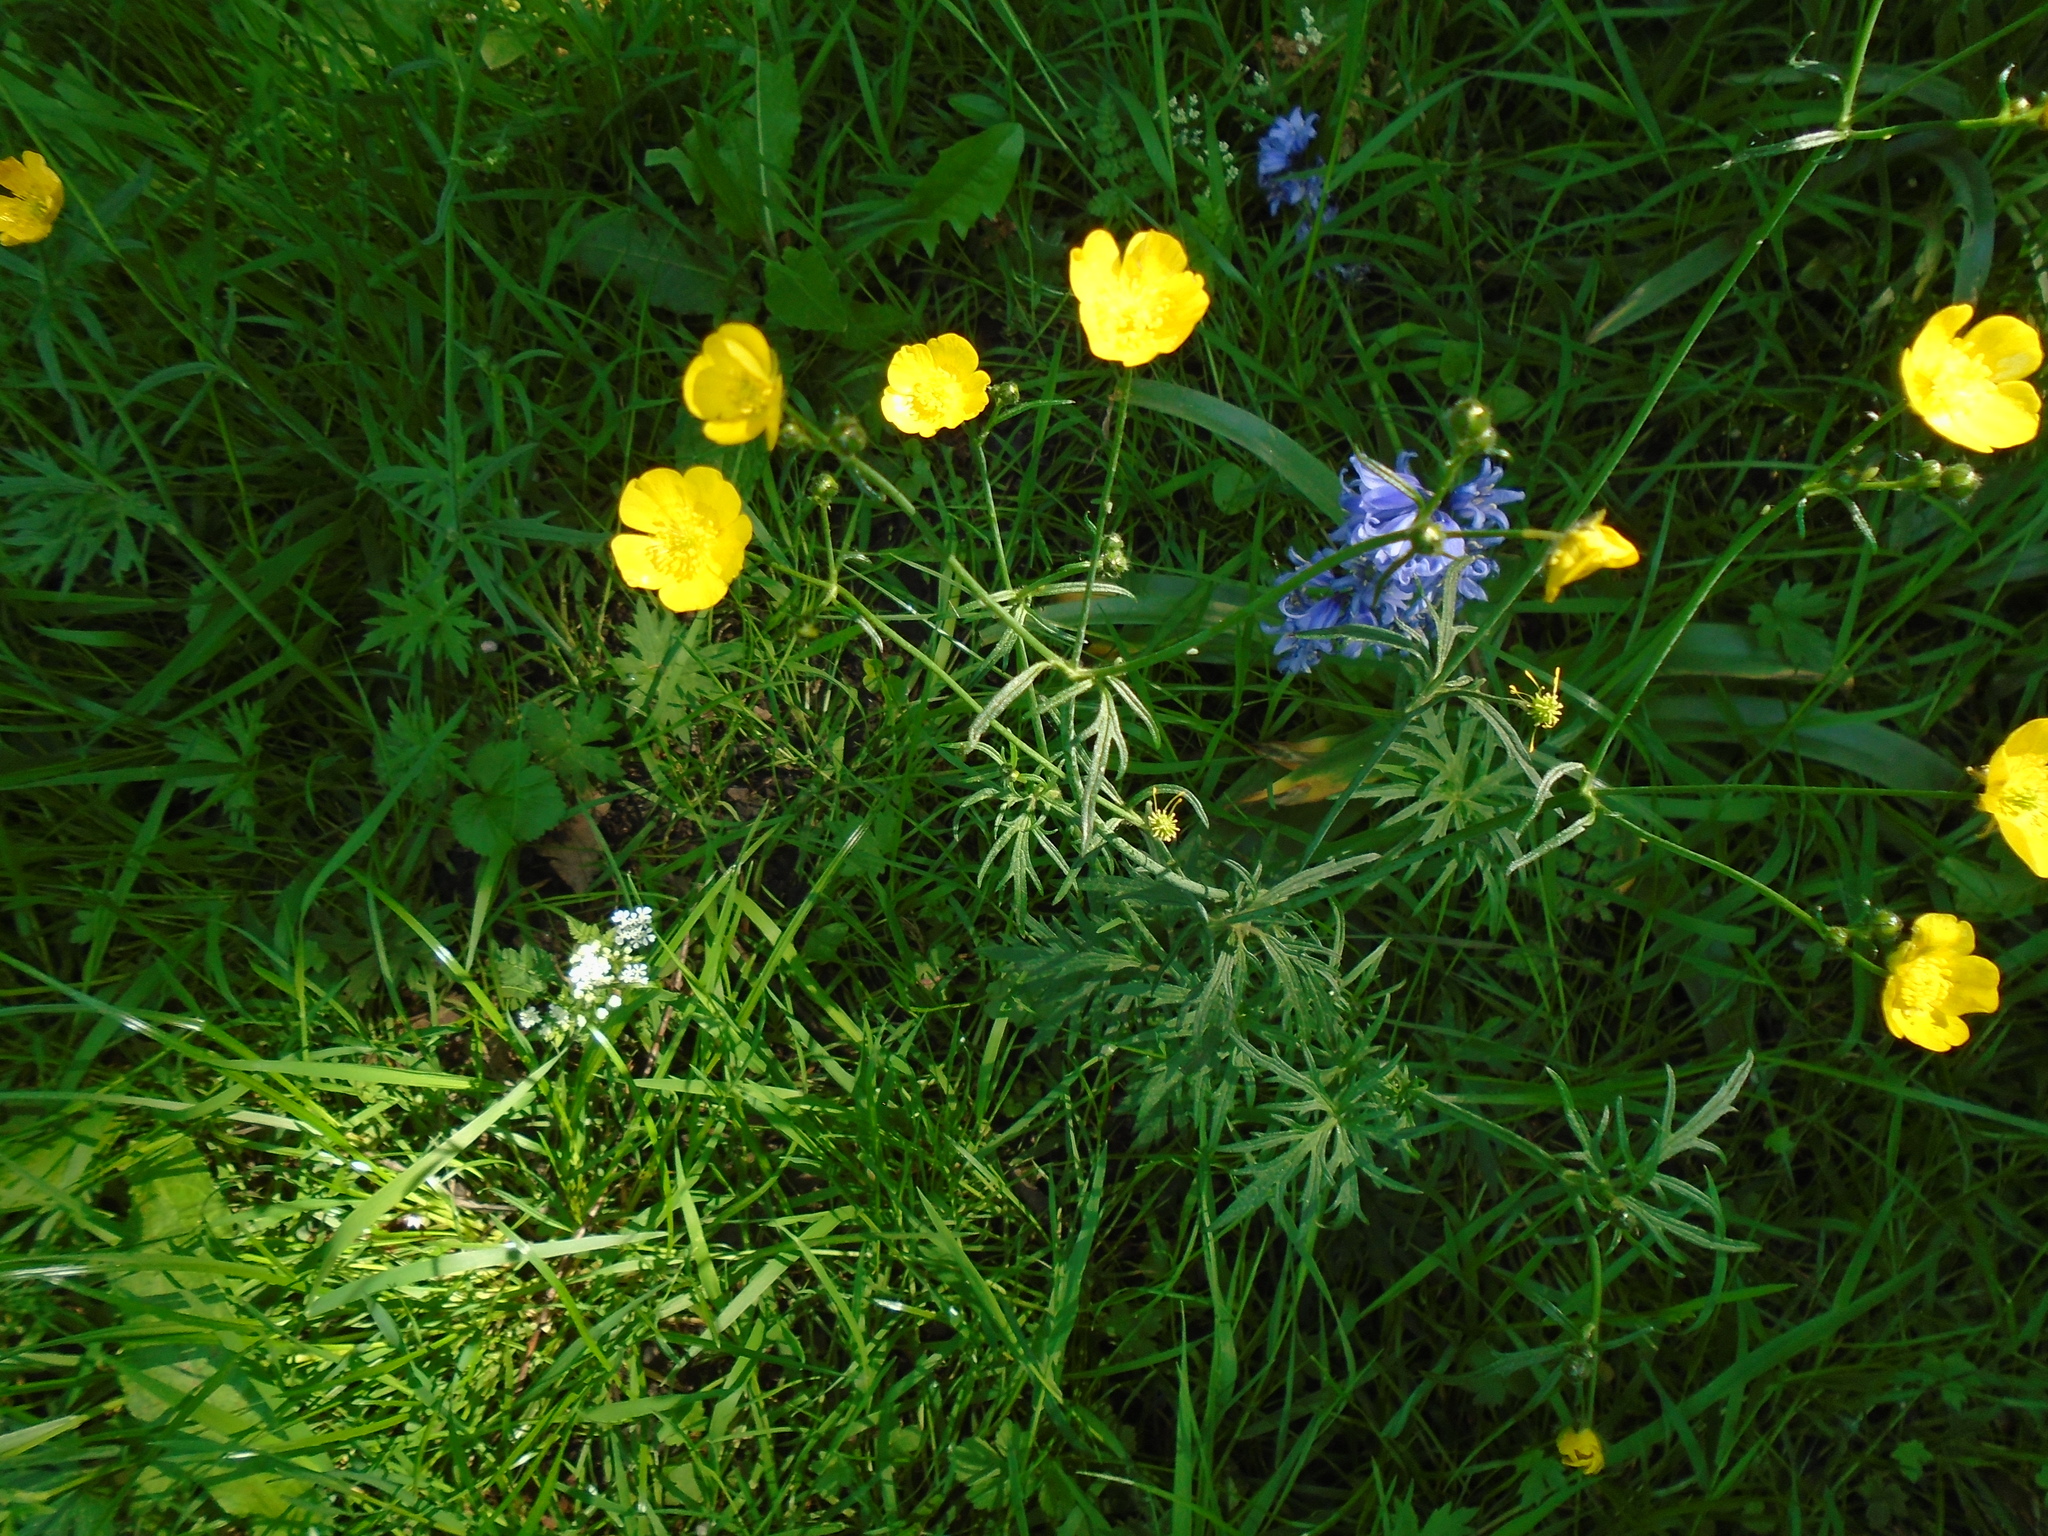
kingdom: Plantae
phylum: Tracheophyta
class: Magnoliopsida
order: Ranunculales
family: Ranunculaceae
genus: Ranunculus
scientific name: Ranunculus acris
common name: Meadow buttercup
